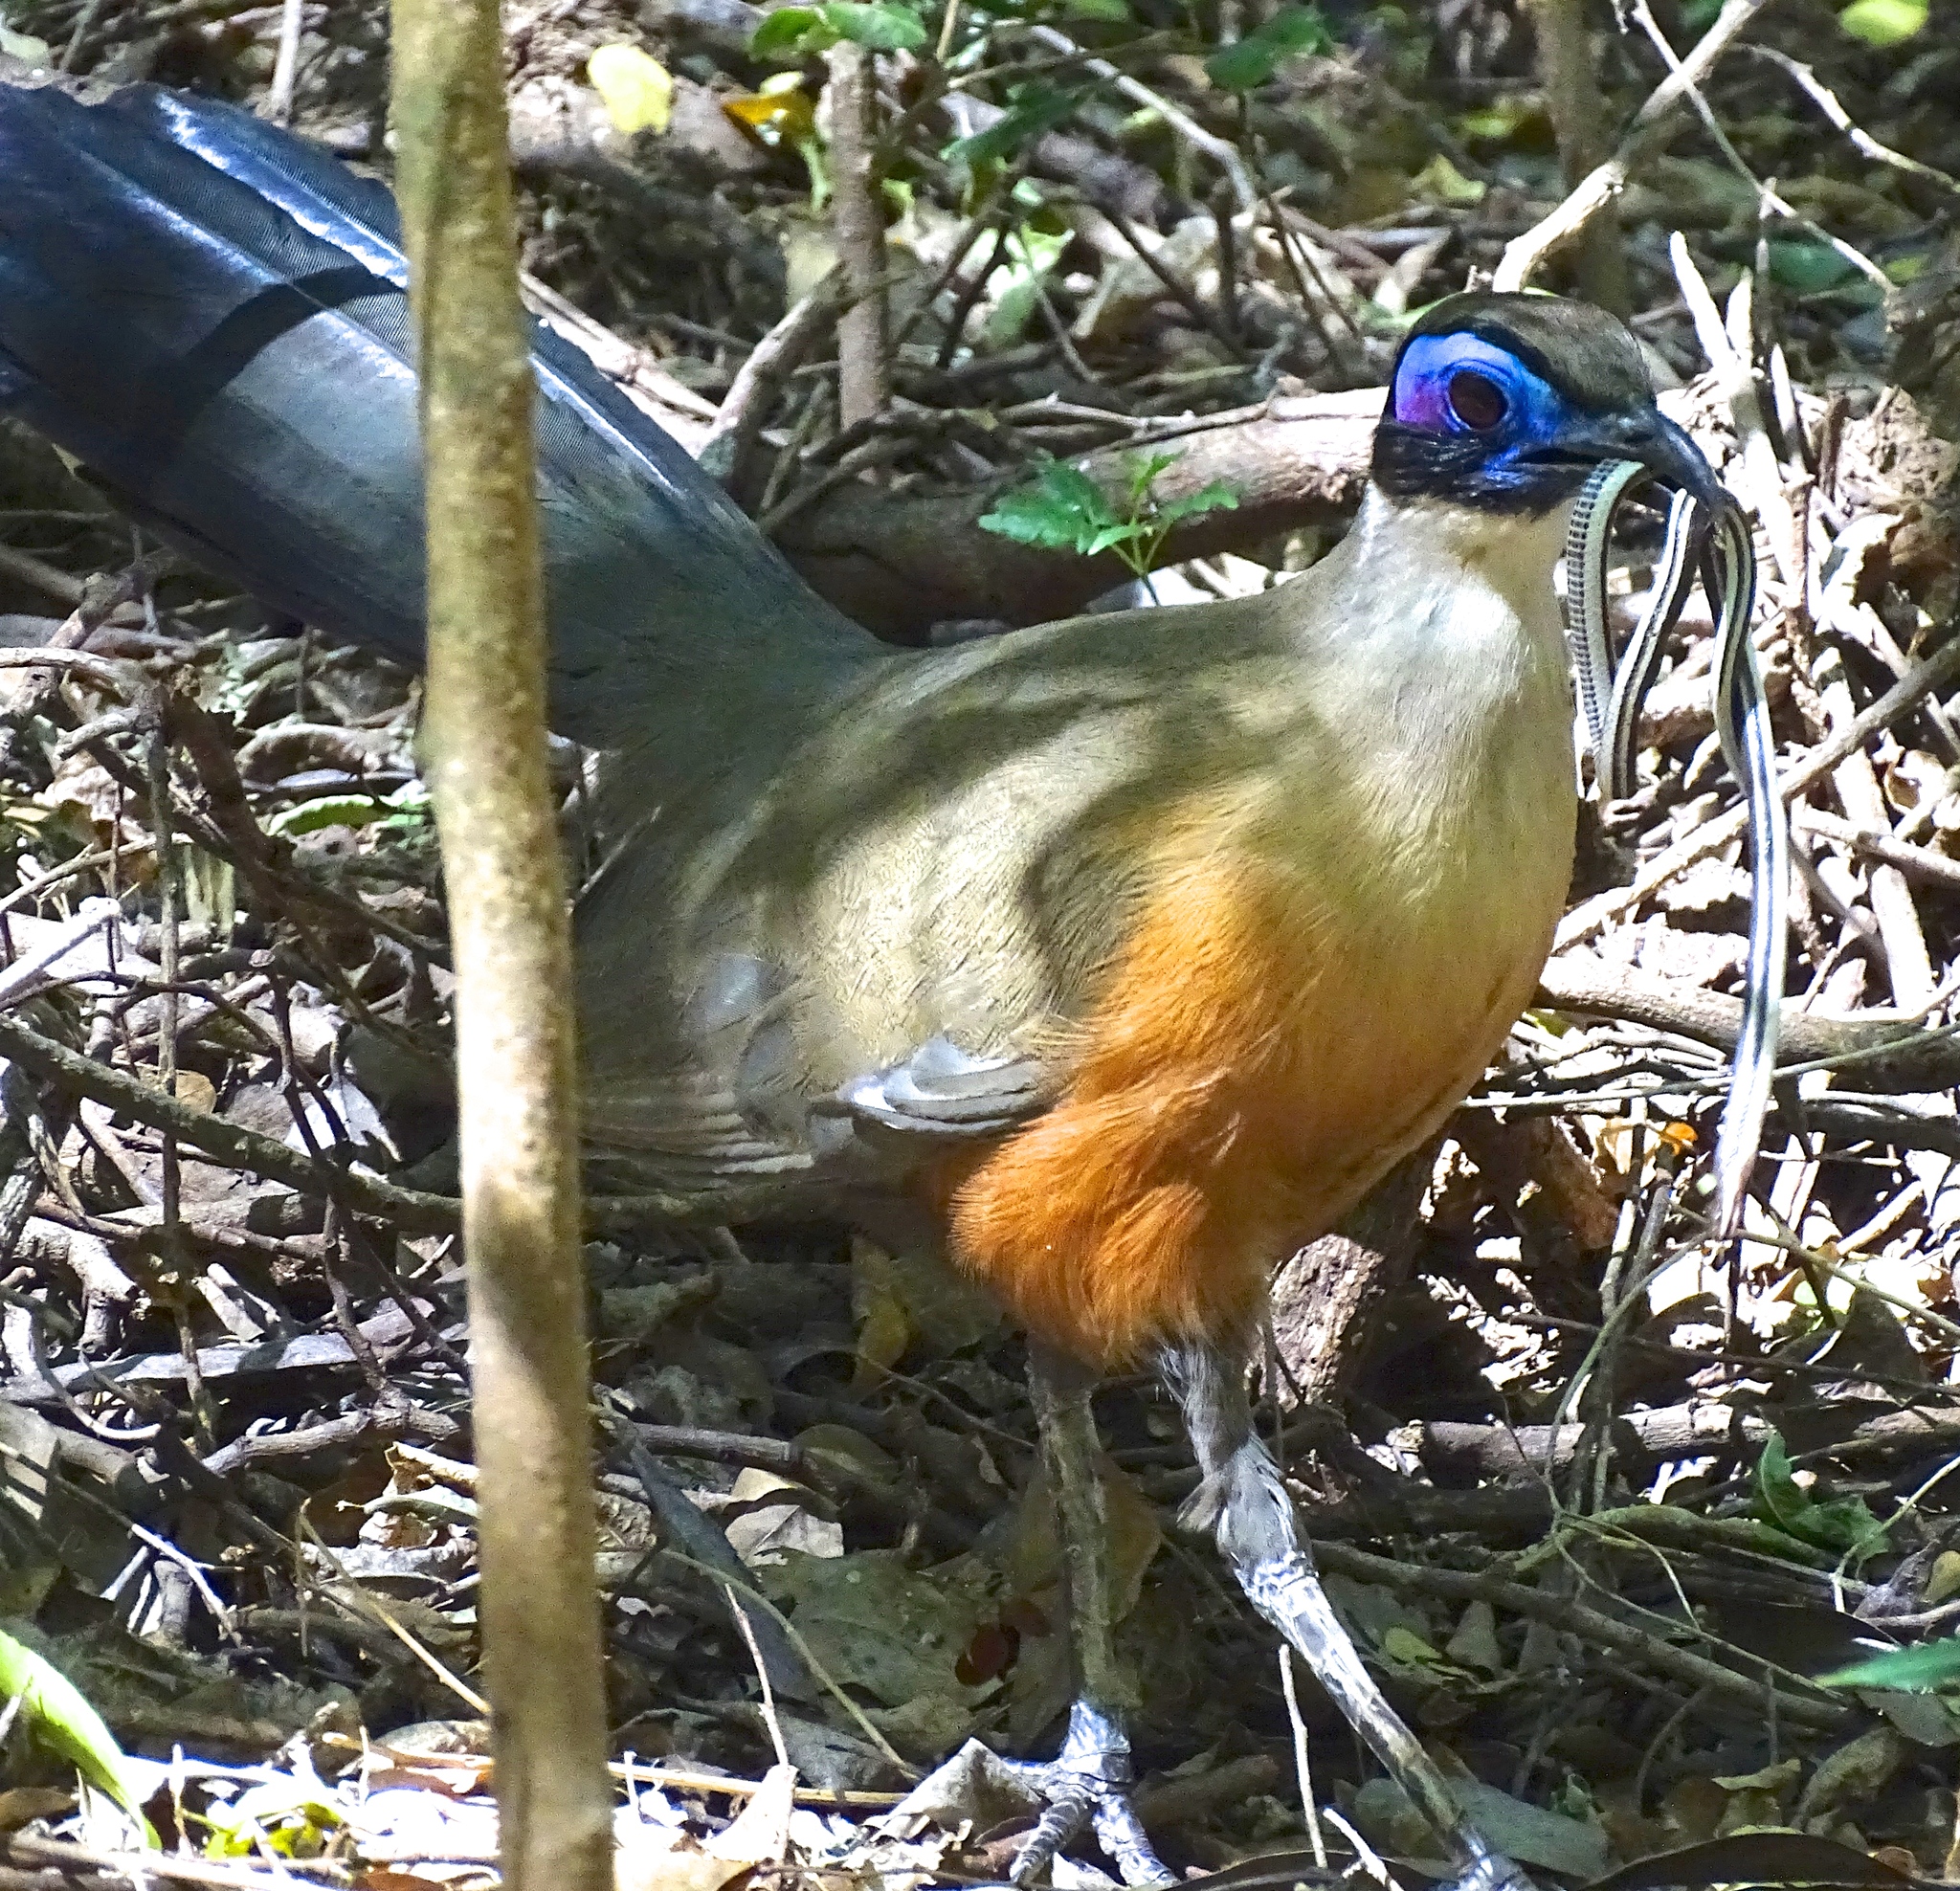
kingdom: Animalia
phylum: Chordata
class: Aves
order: Cuculiformes
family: Cuculidae
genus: Coua
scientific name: Coua gigas
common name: Giant coua
